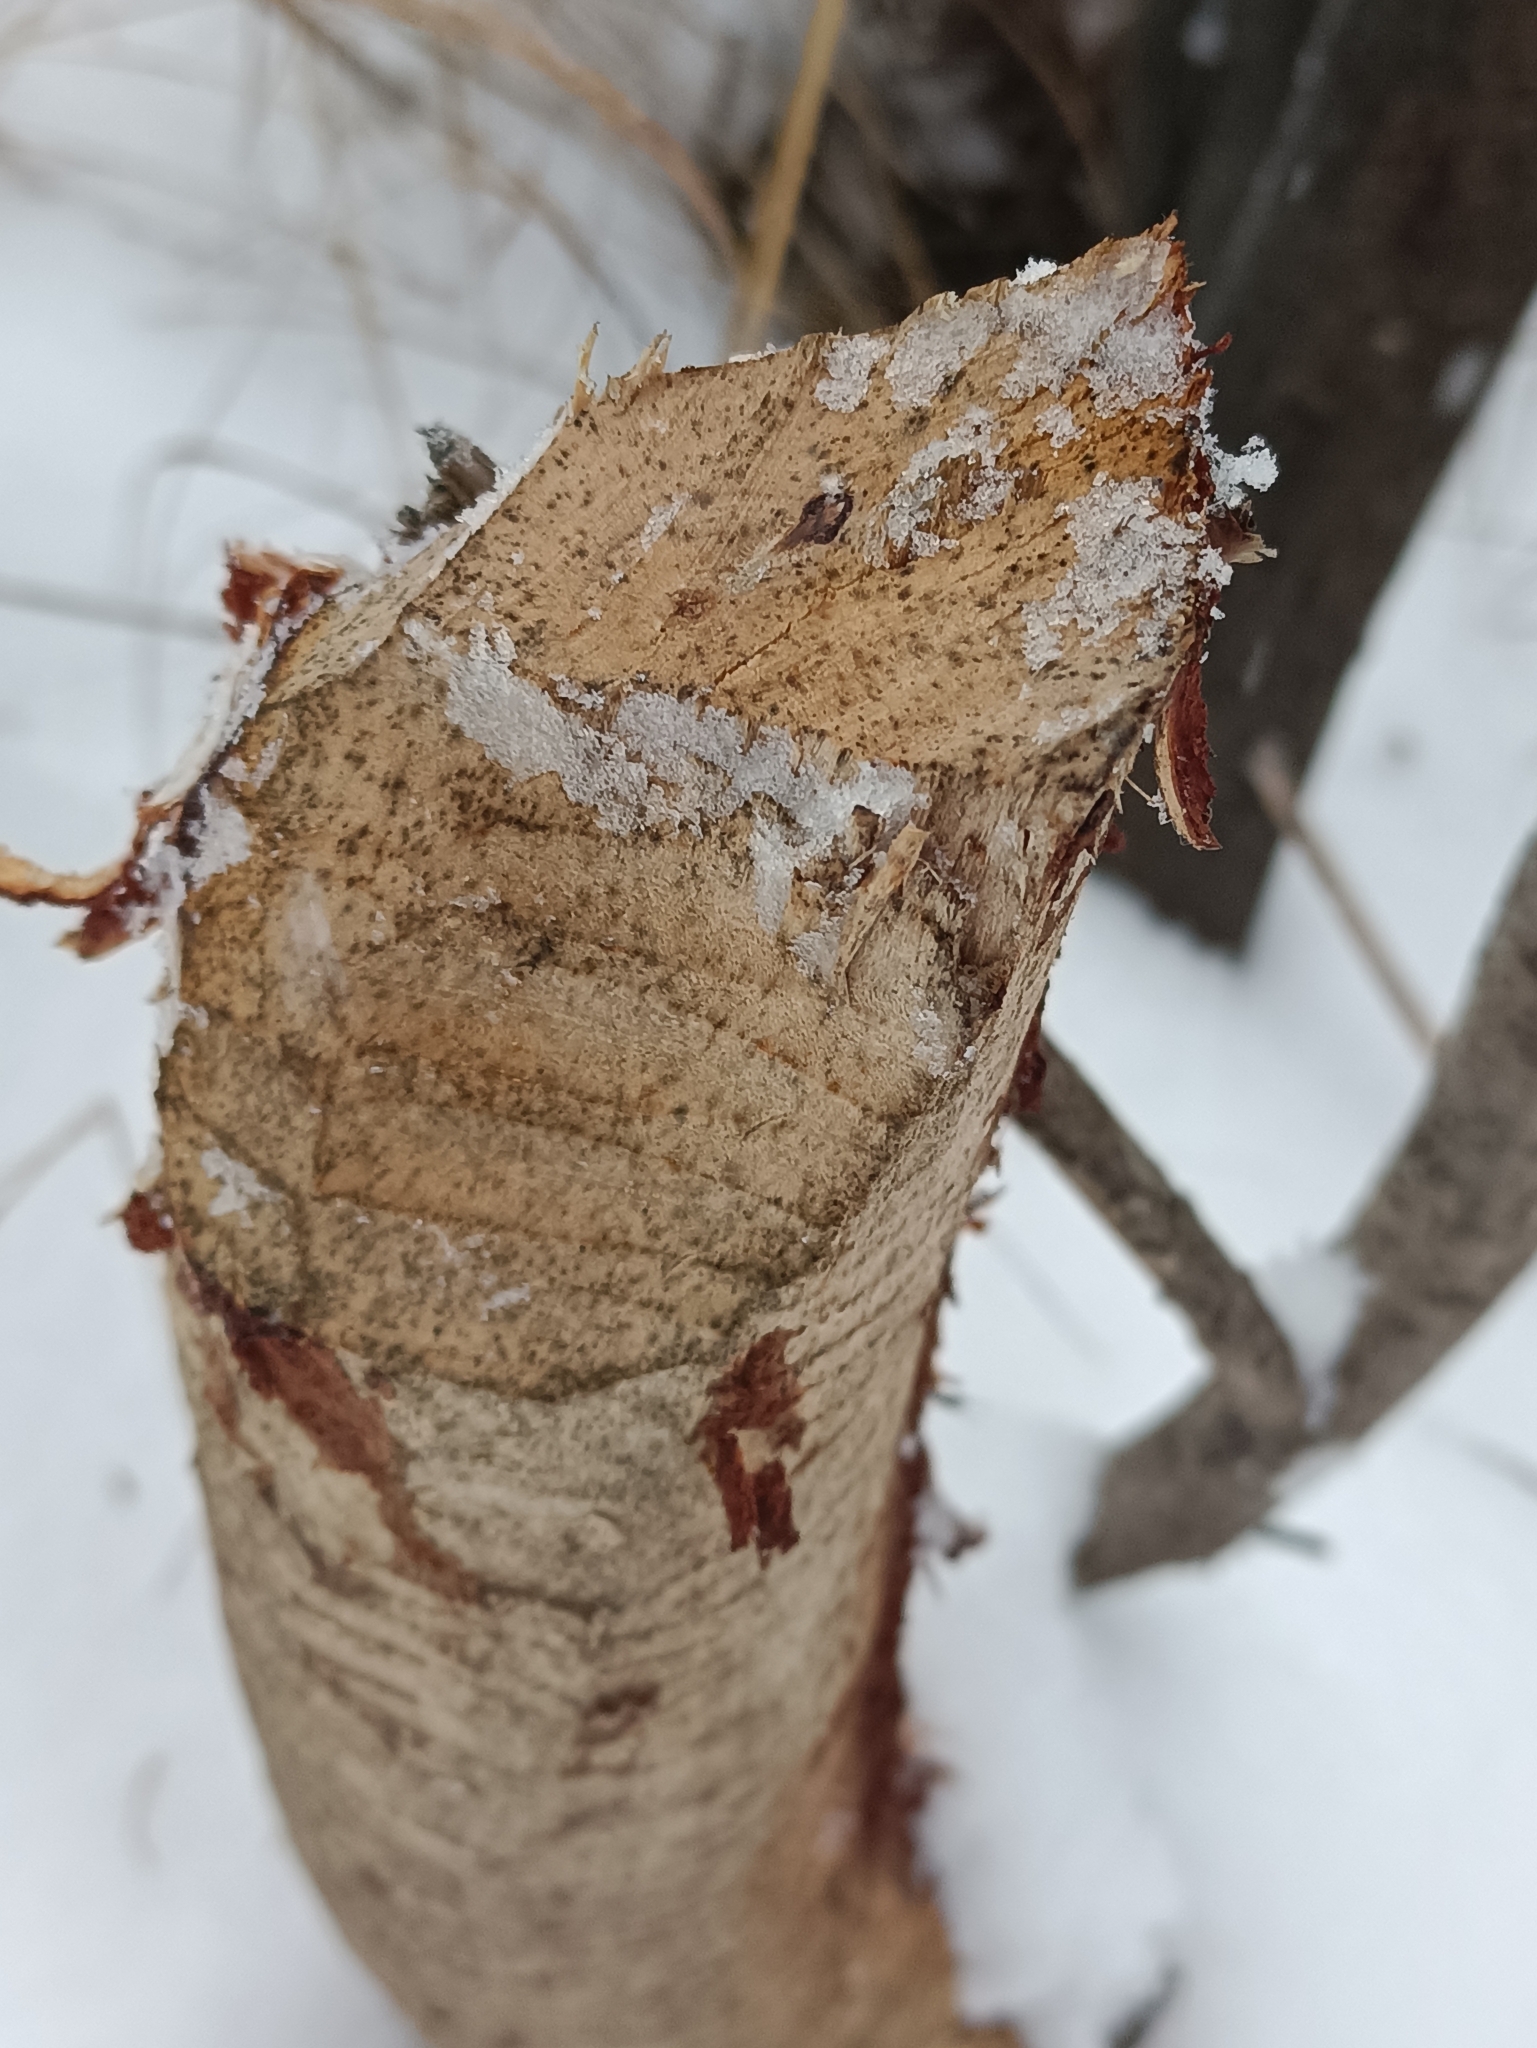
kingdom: Animalia
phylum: Chordata
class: Mammalia
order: Rodentia
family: Castoridae
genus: Castor
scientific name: Castor fiber
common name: Eurasian beaver
